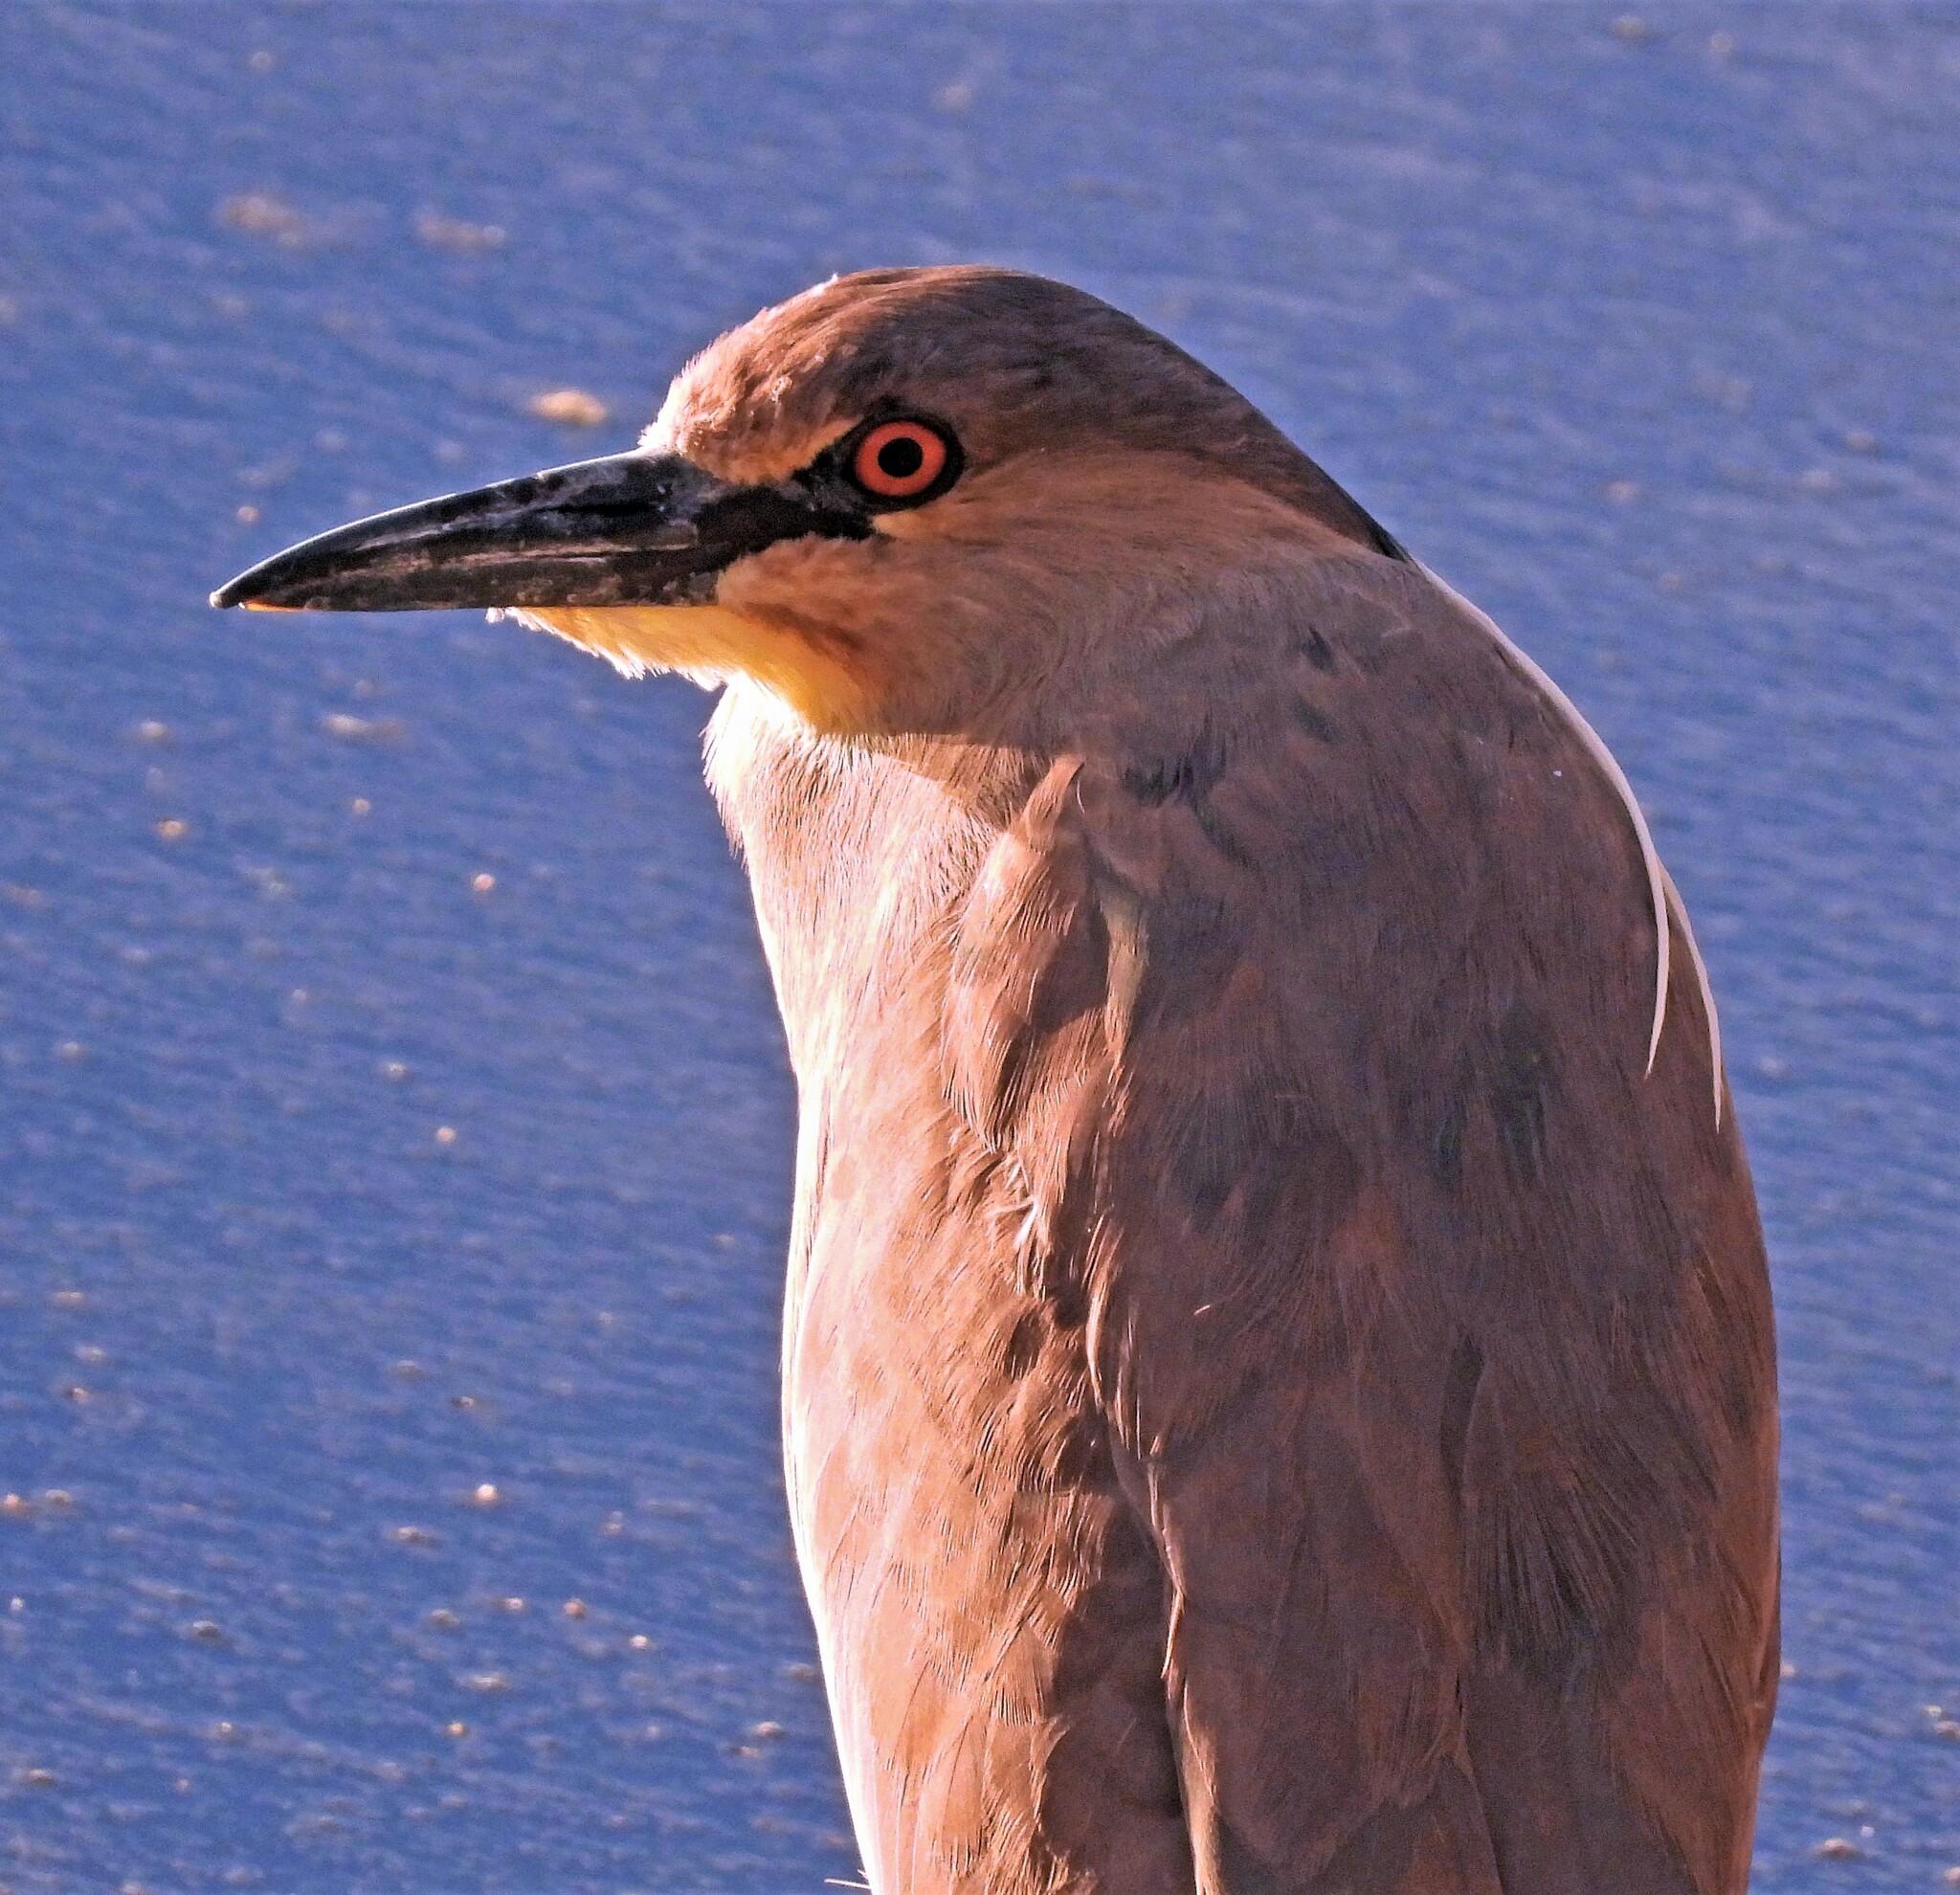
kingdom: Animalia
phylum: Chordata
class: Aves
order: Pelecaniformes
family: Ardeidae
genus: Nycticorax
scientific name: Nycticorax nycticorax
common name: Black-crowned night heron
